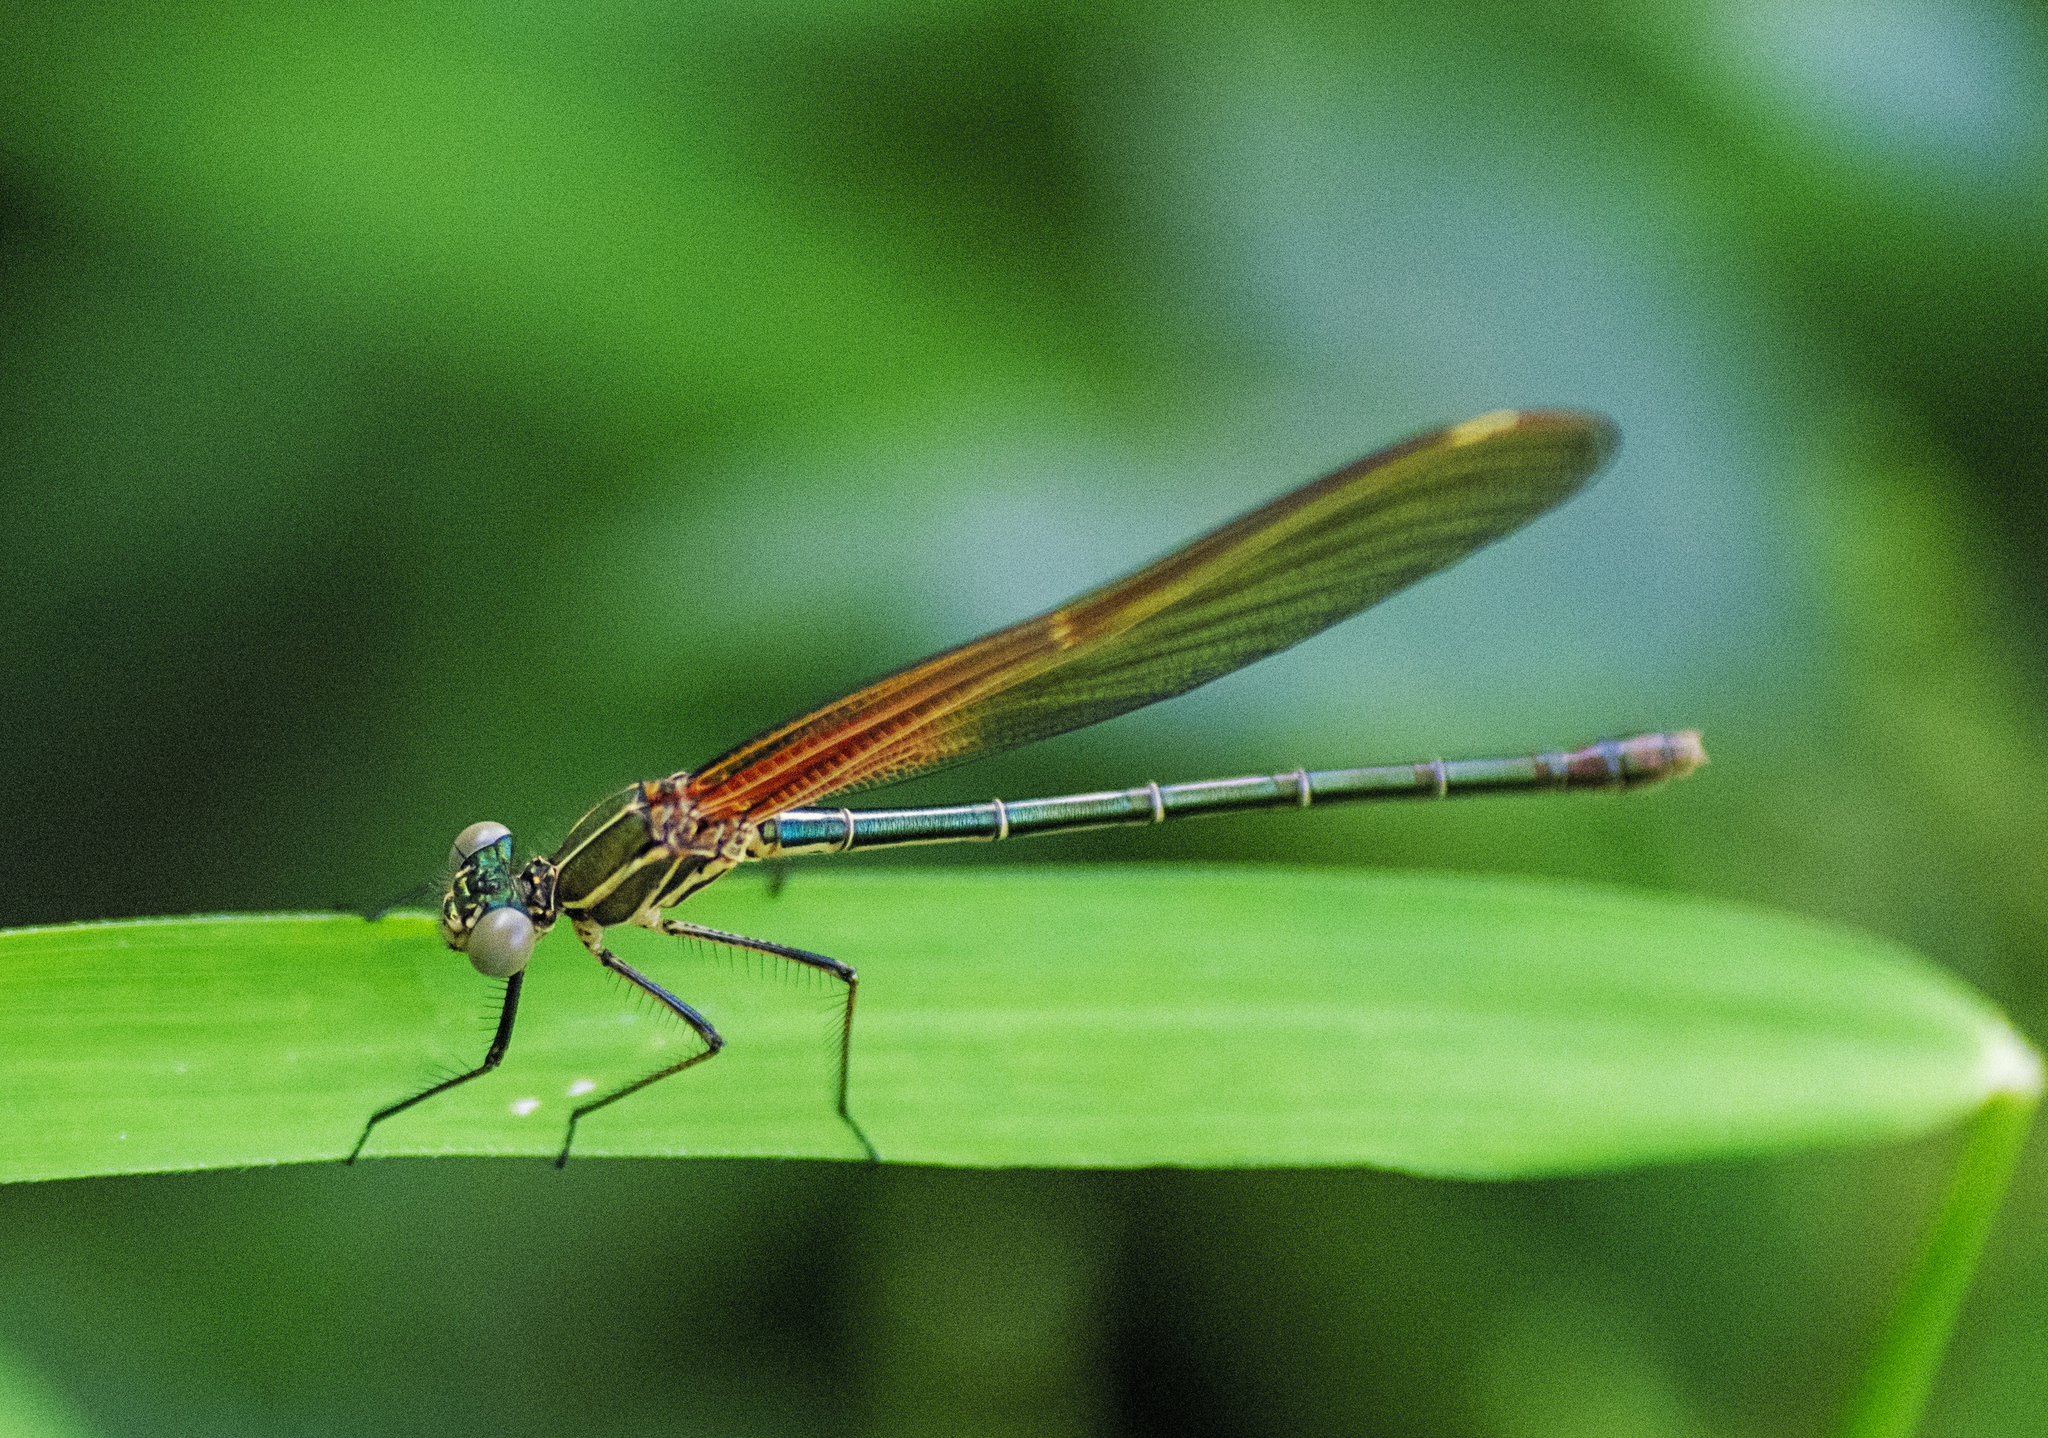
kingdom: Animalia
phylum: Arthropoda
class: Insecta
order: Odonata
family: Calopterygidae
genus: Hetaerina
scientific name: Hetaerina americana
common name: American rubyspot
